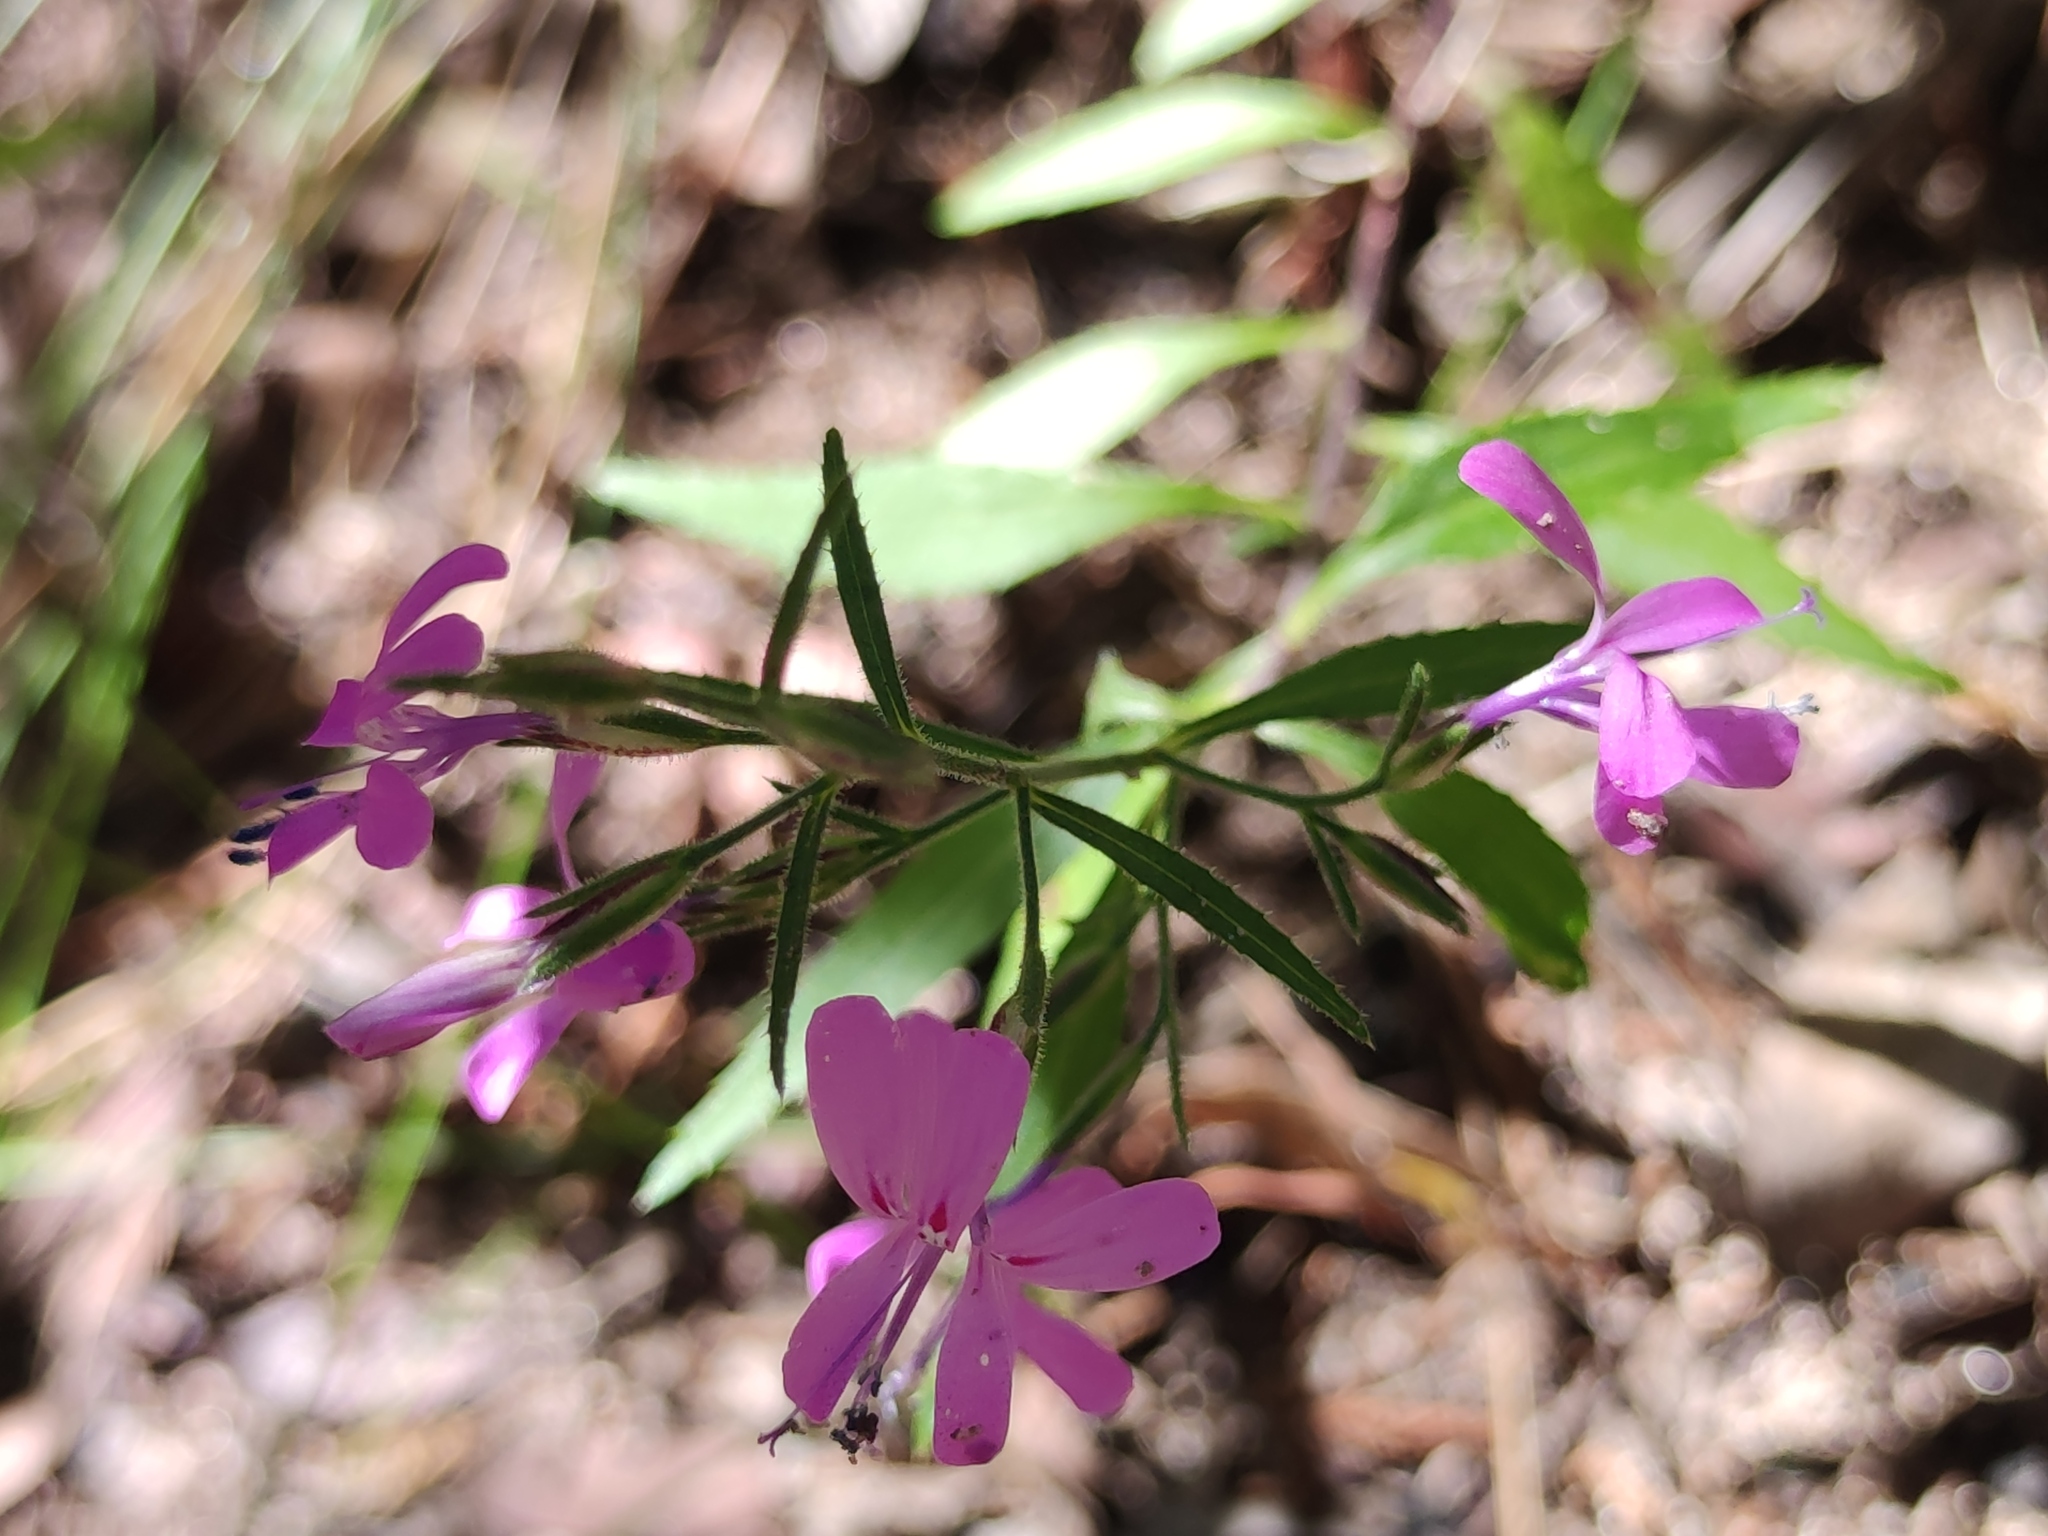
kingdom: Plantae
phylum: Tracheophyta
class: Magnoliopsida
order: Ericales
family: Polemoniaceae
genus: Loeselia
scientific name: Loeselia glandulosa
